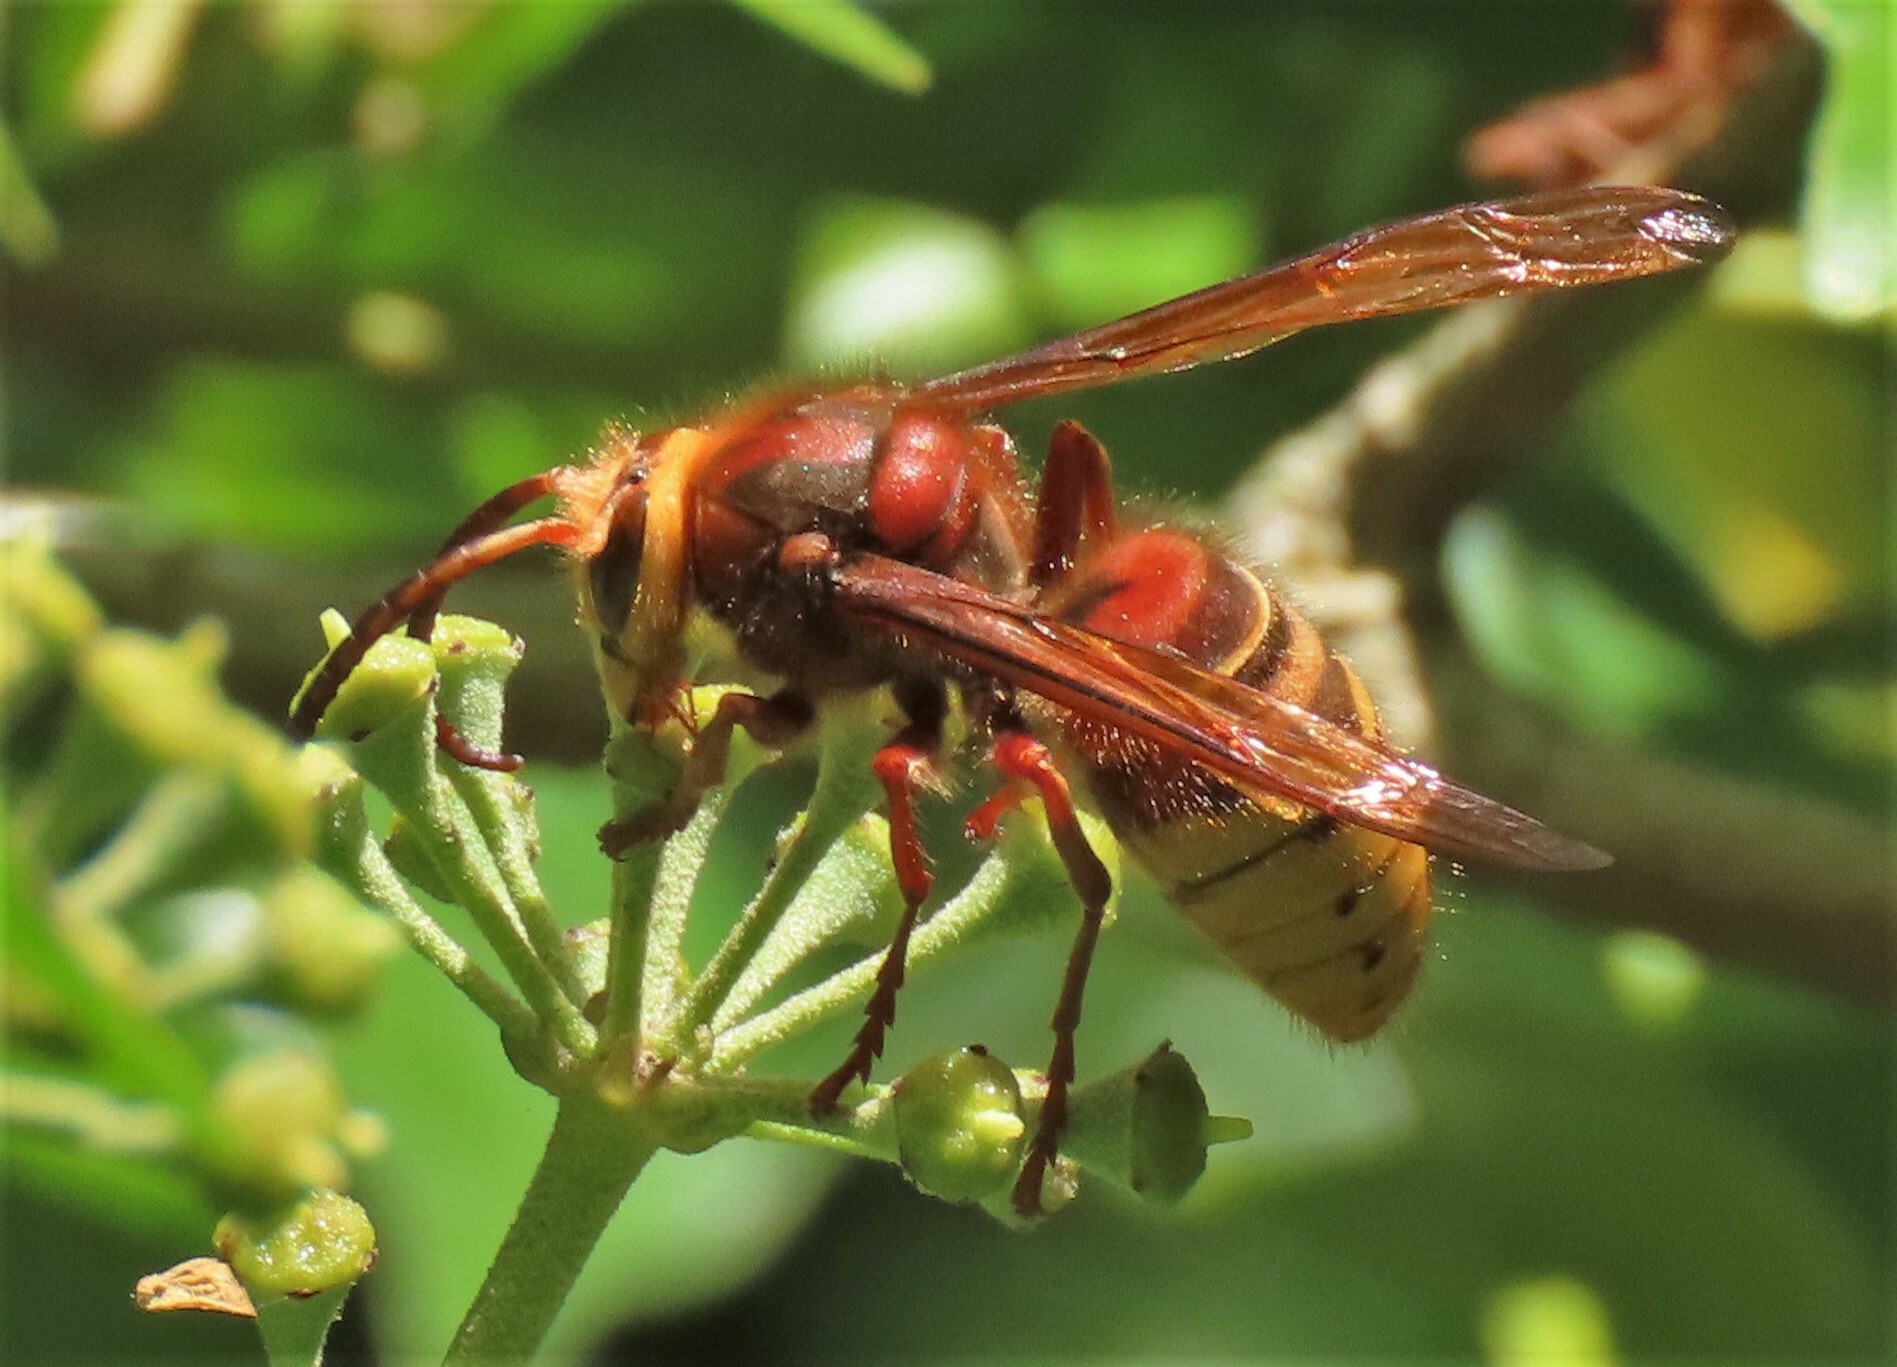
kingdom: Animalia
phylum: Arthropoda
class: Insecta
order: Hymenoptera
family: Vespidae
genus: Vespa
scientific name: Vespa crabro
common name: Hornet
